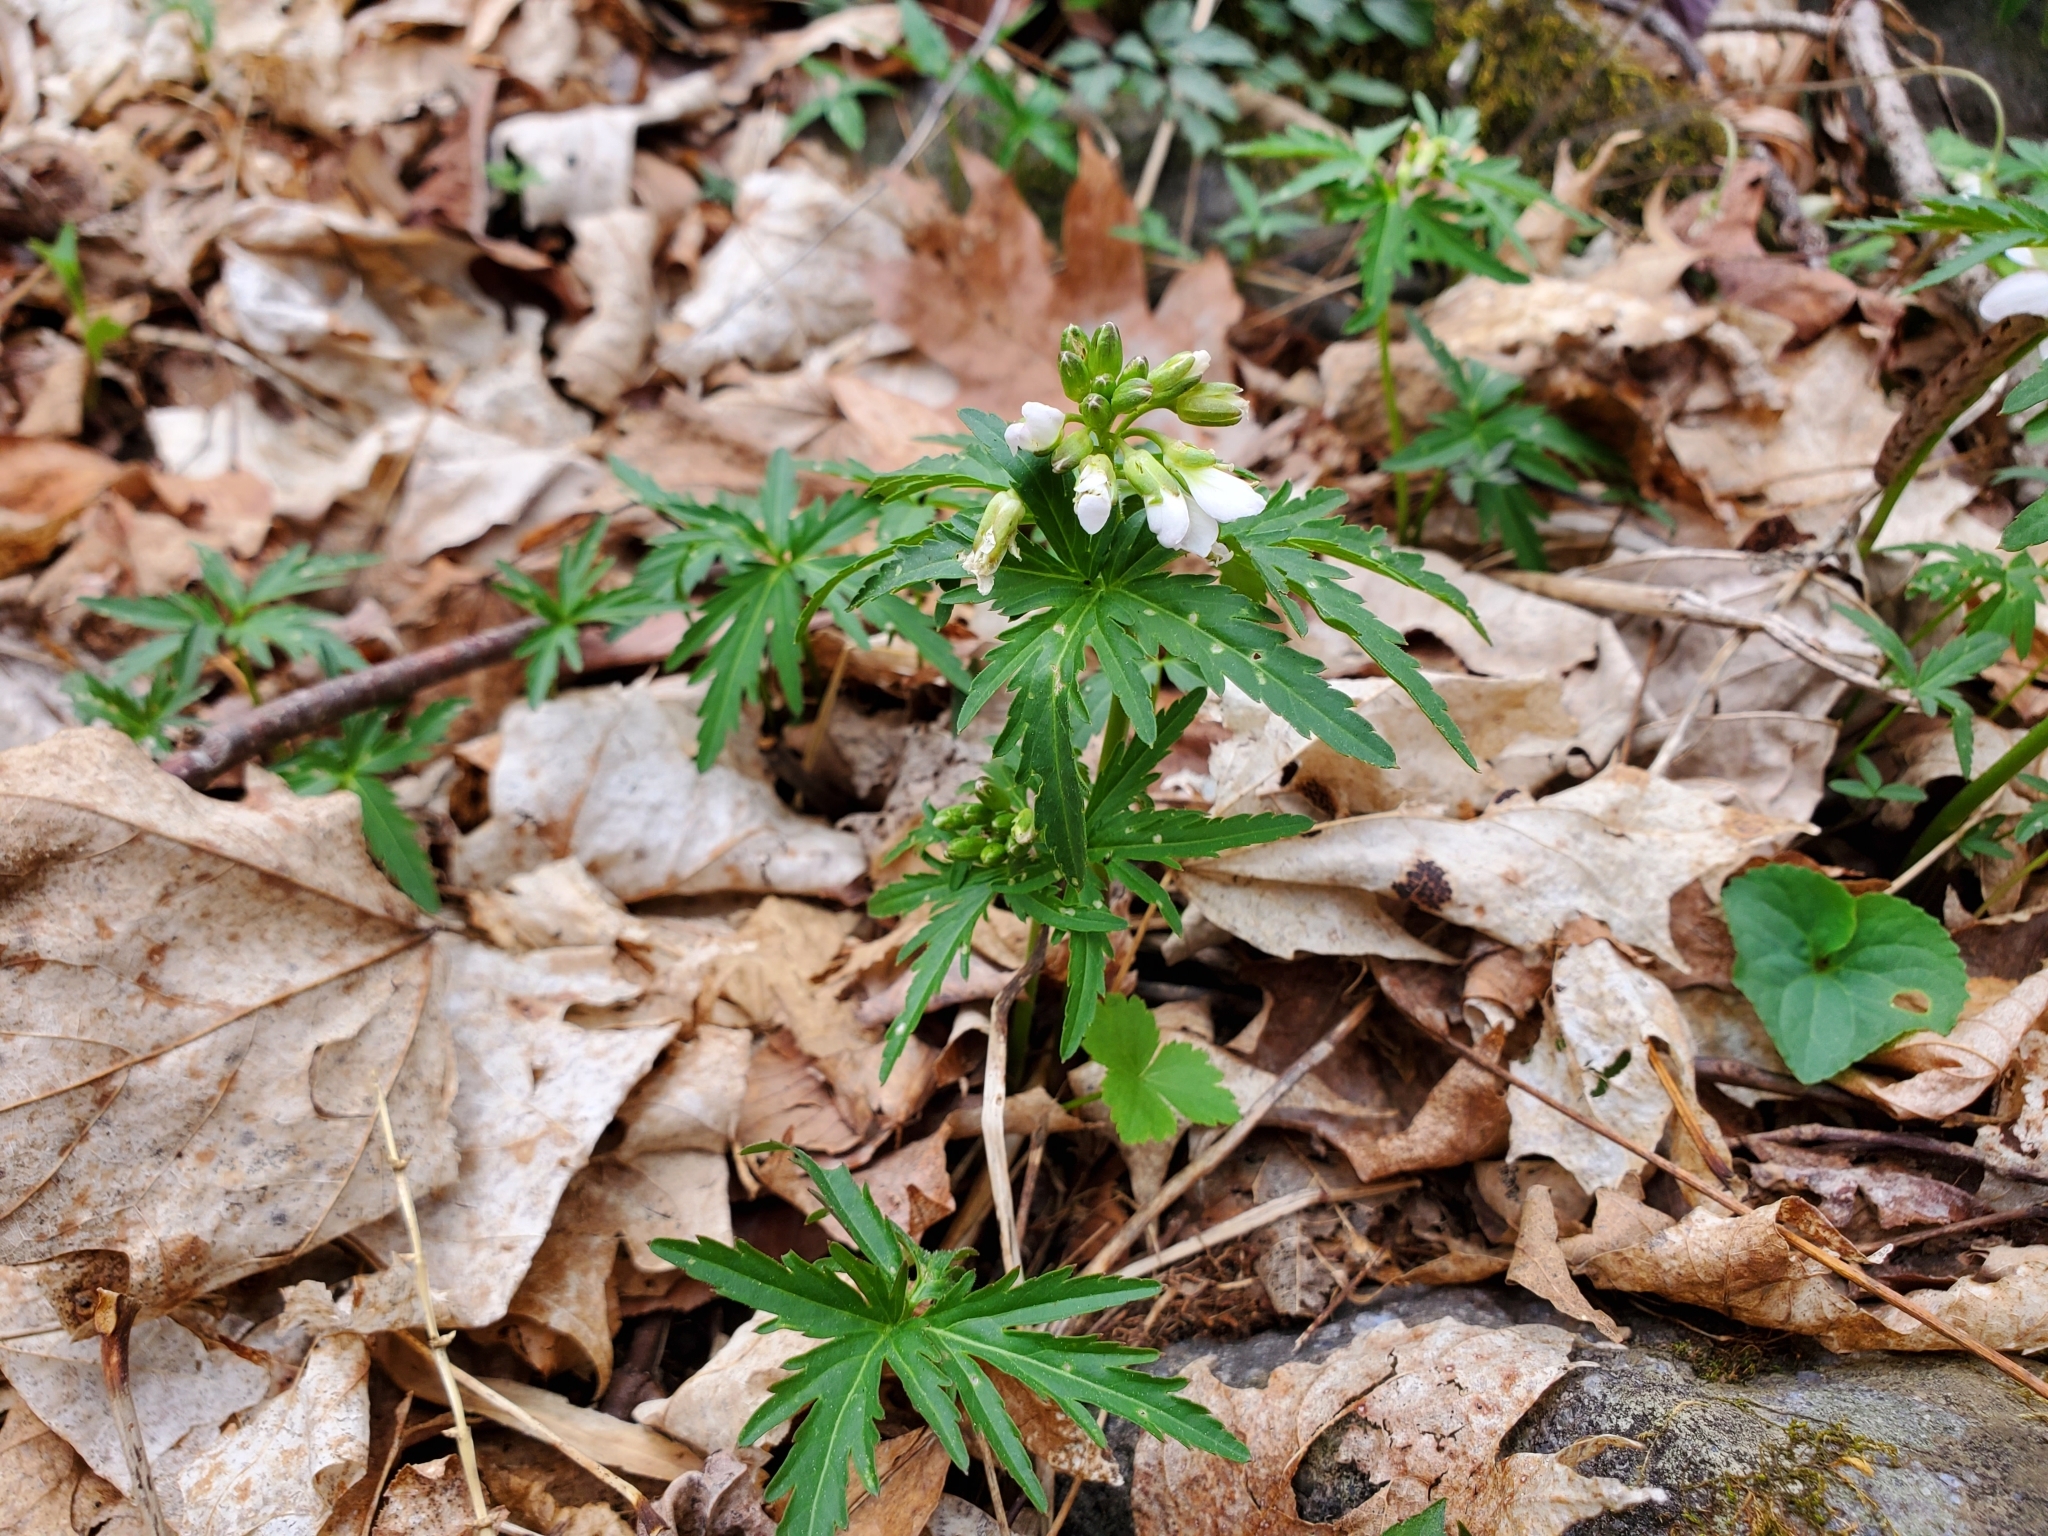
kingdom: Plantae
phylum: Tracheophyta
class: Magnoliopsida
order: Brassicales
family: Brassicaceae
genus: Cardamine
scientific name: Cardamine concatenata
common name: Cut-leaf toothcup
